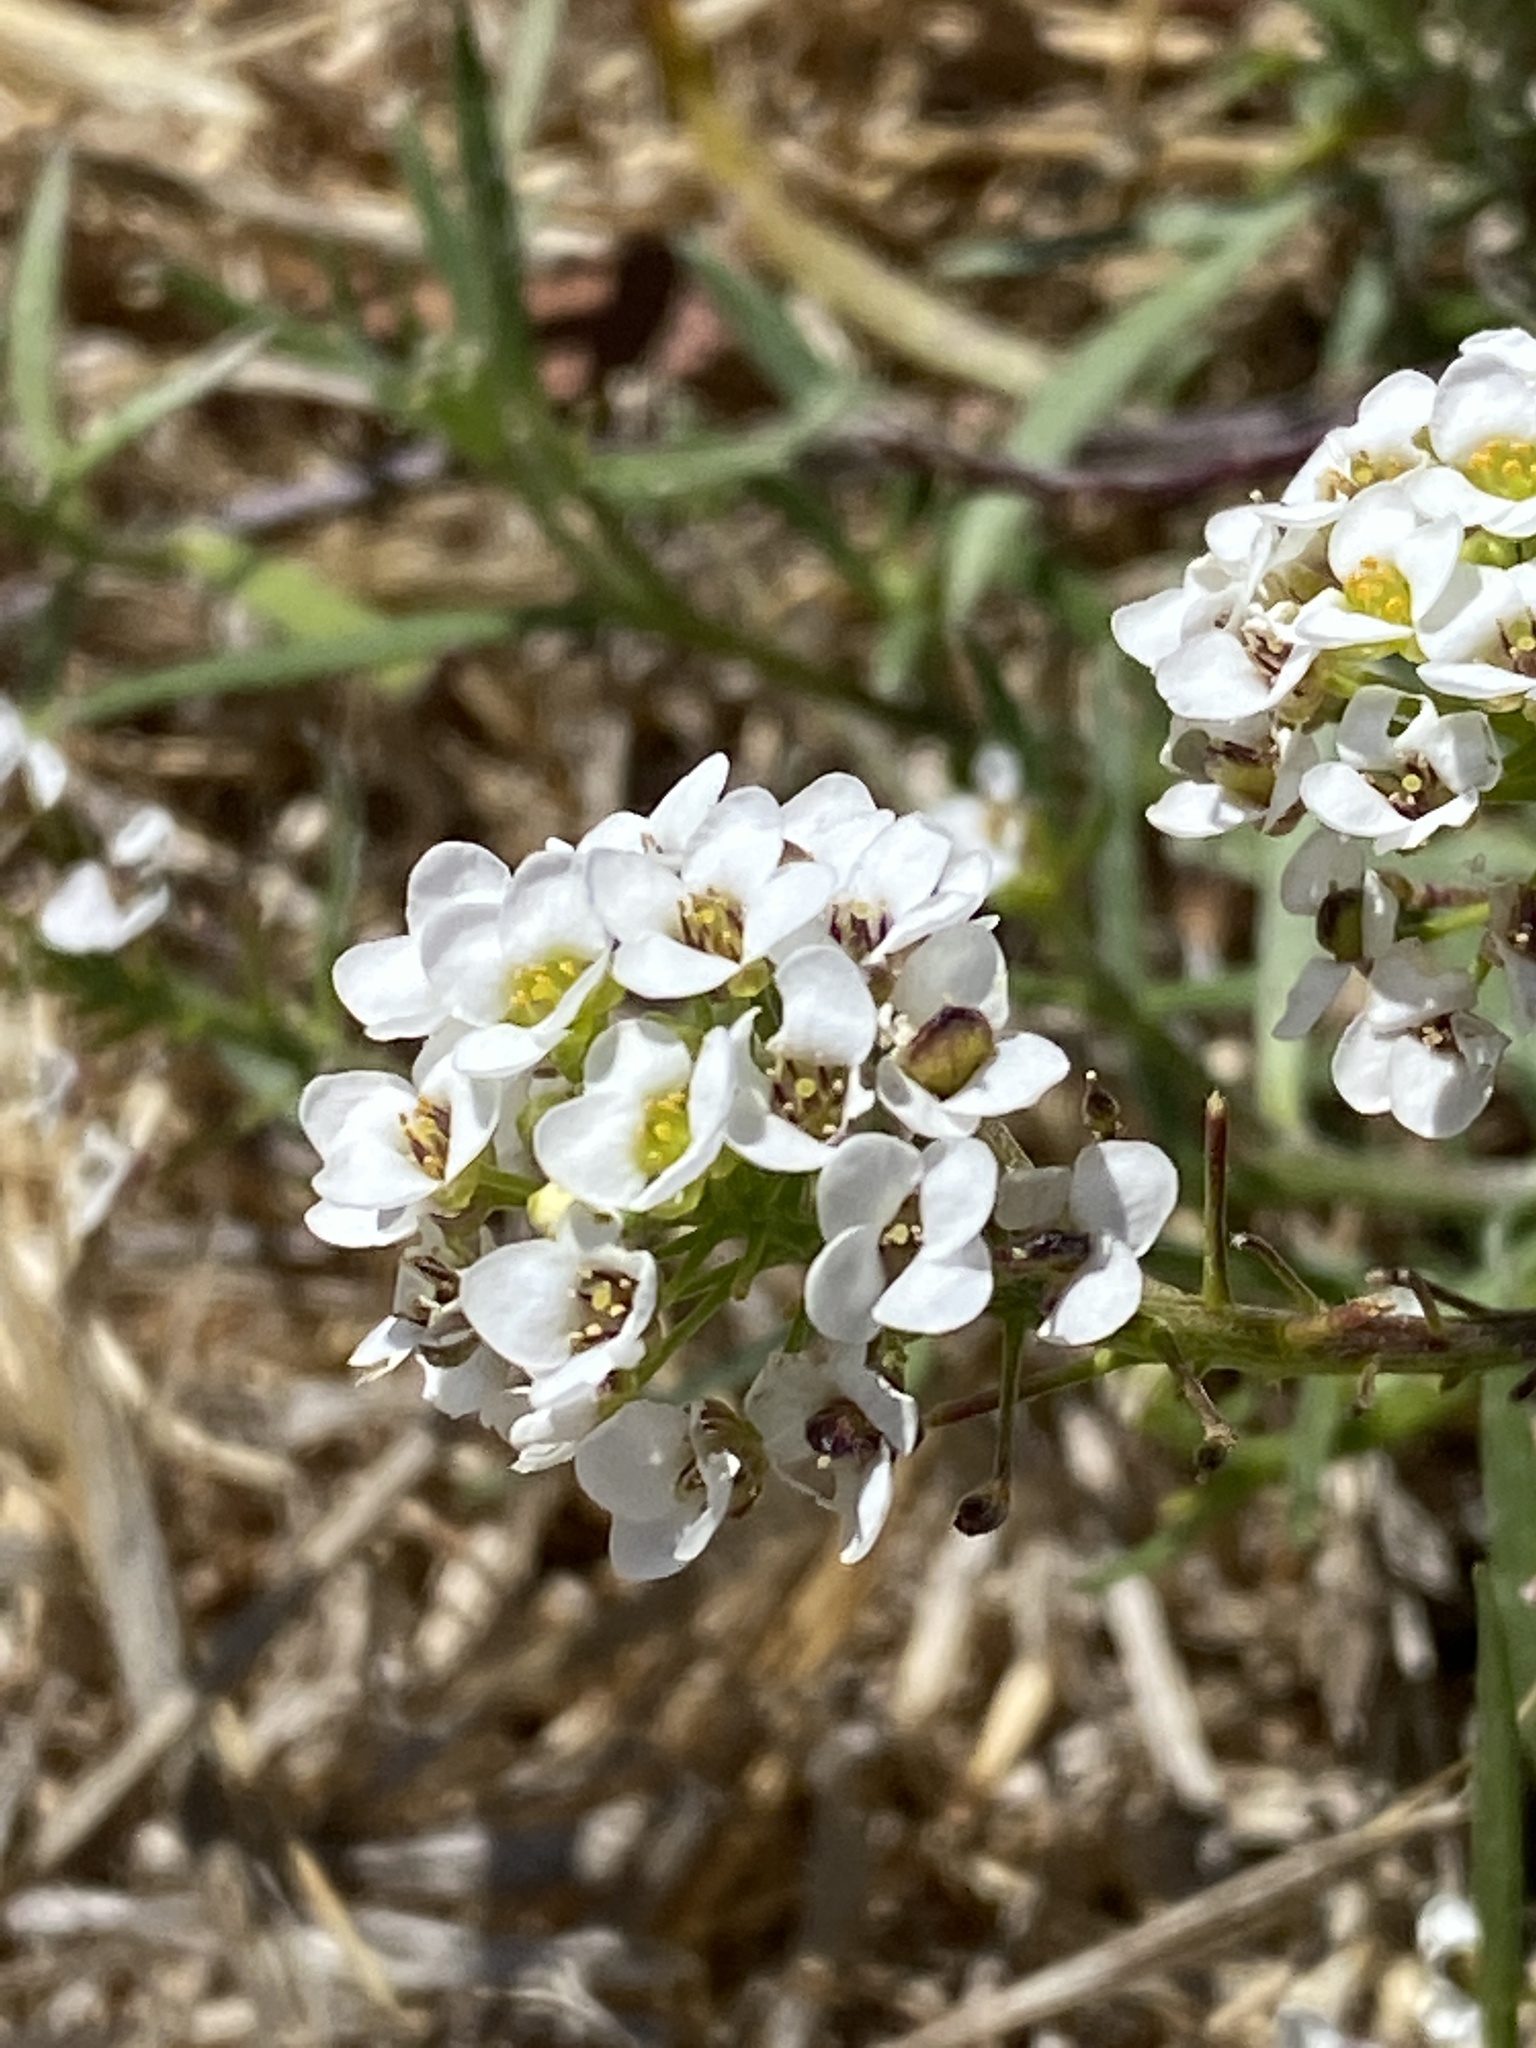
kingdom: Plantae
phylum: Tracheophyta
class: Magnoliopsida
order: Brassicales
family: Brassicaceae
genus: Lobularia
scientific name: Lobularia maritima
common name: Sweet alison
